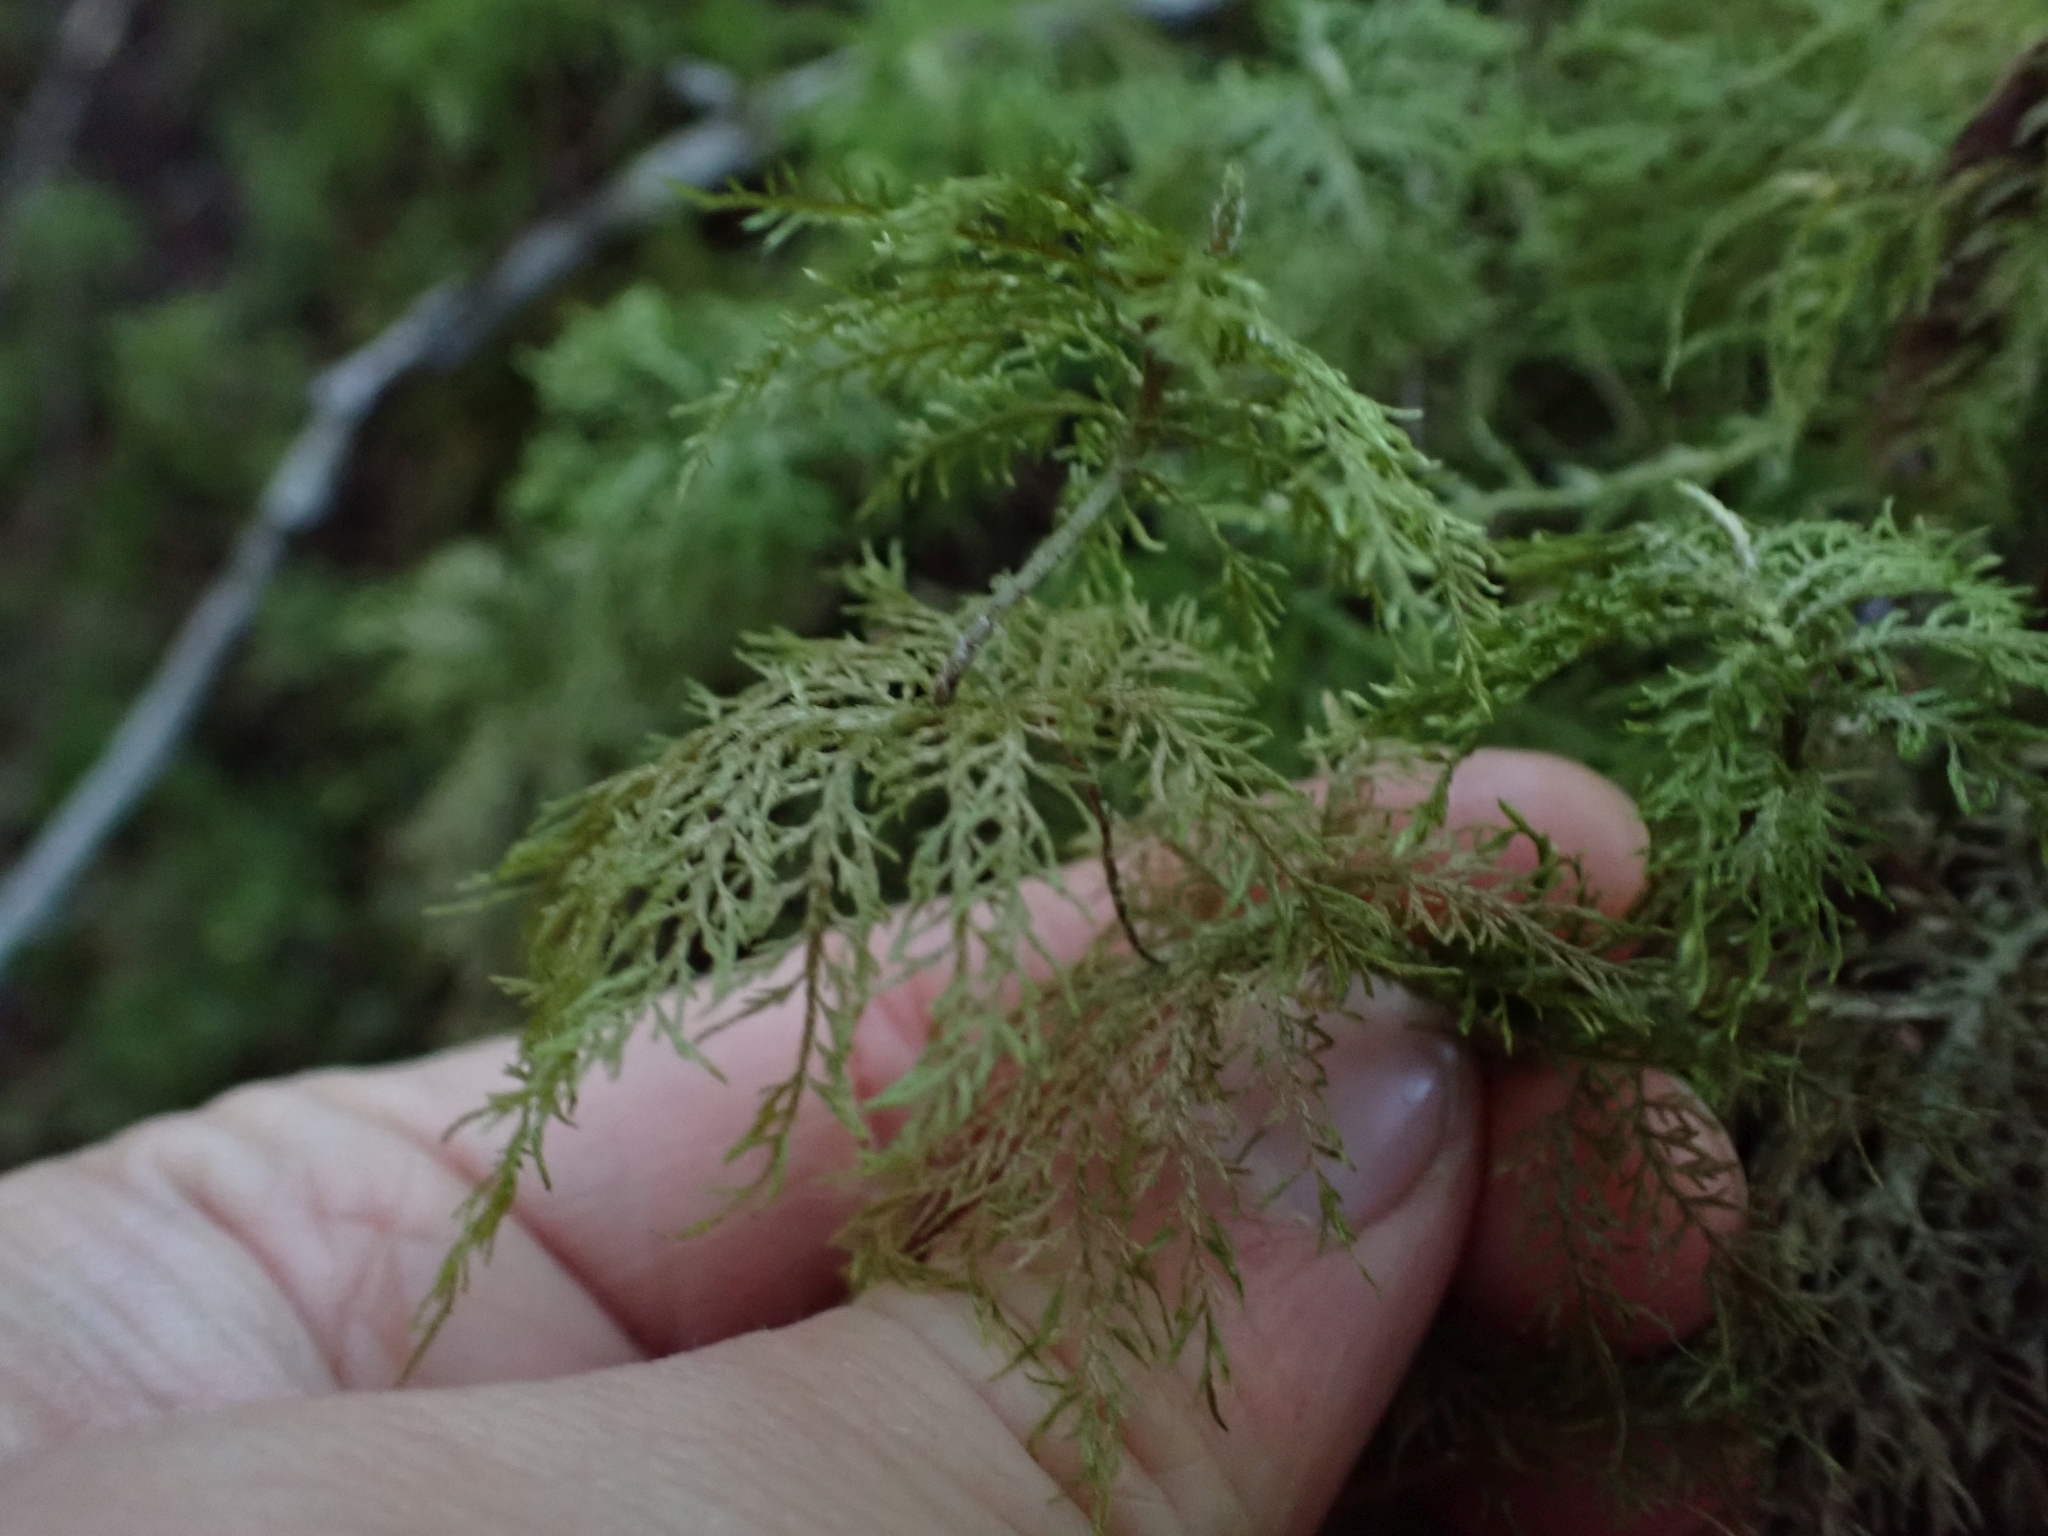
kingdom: Plantae
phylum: Bryophyta
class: Bryopsida
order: Hypnales
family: Hylocomiaceae
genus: Hylocomium
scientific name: Hylocomium splendens
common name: Stairstep moss
